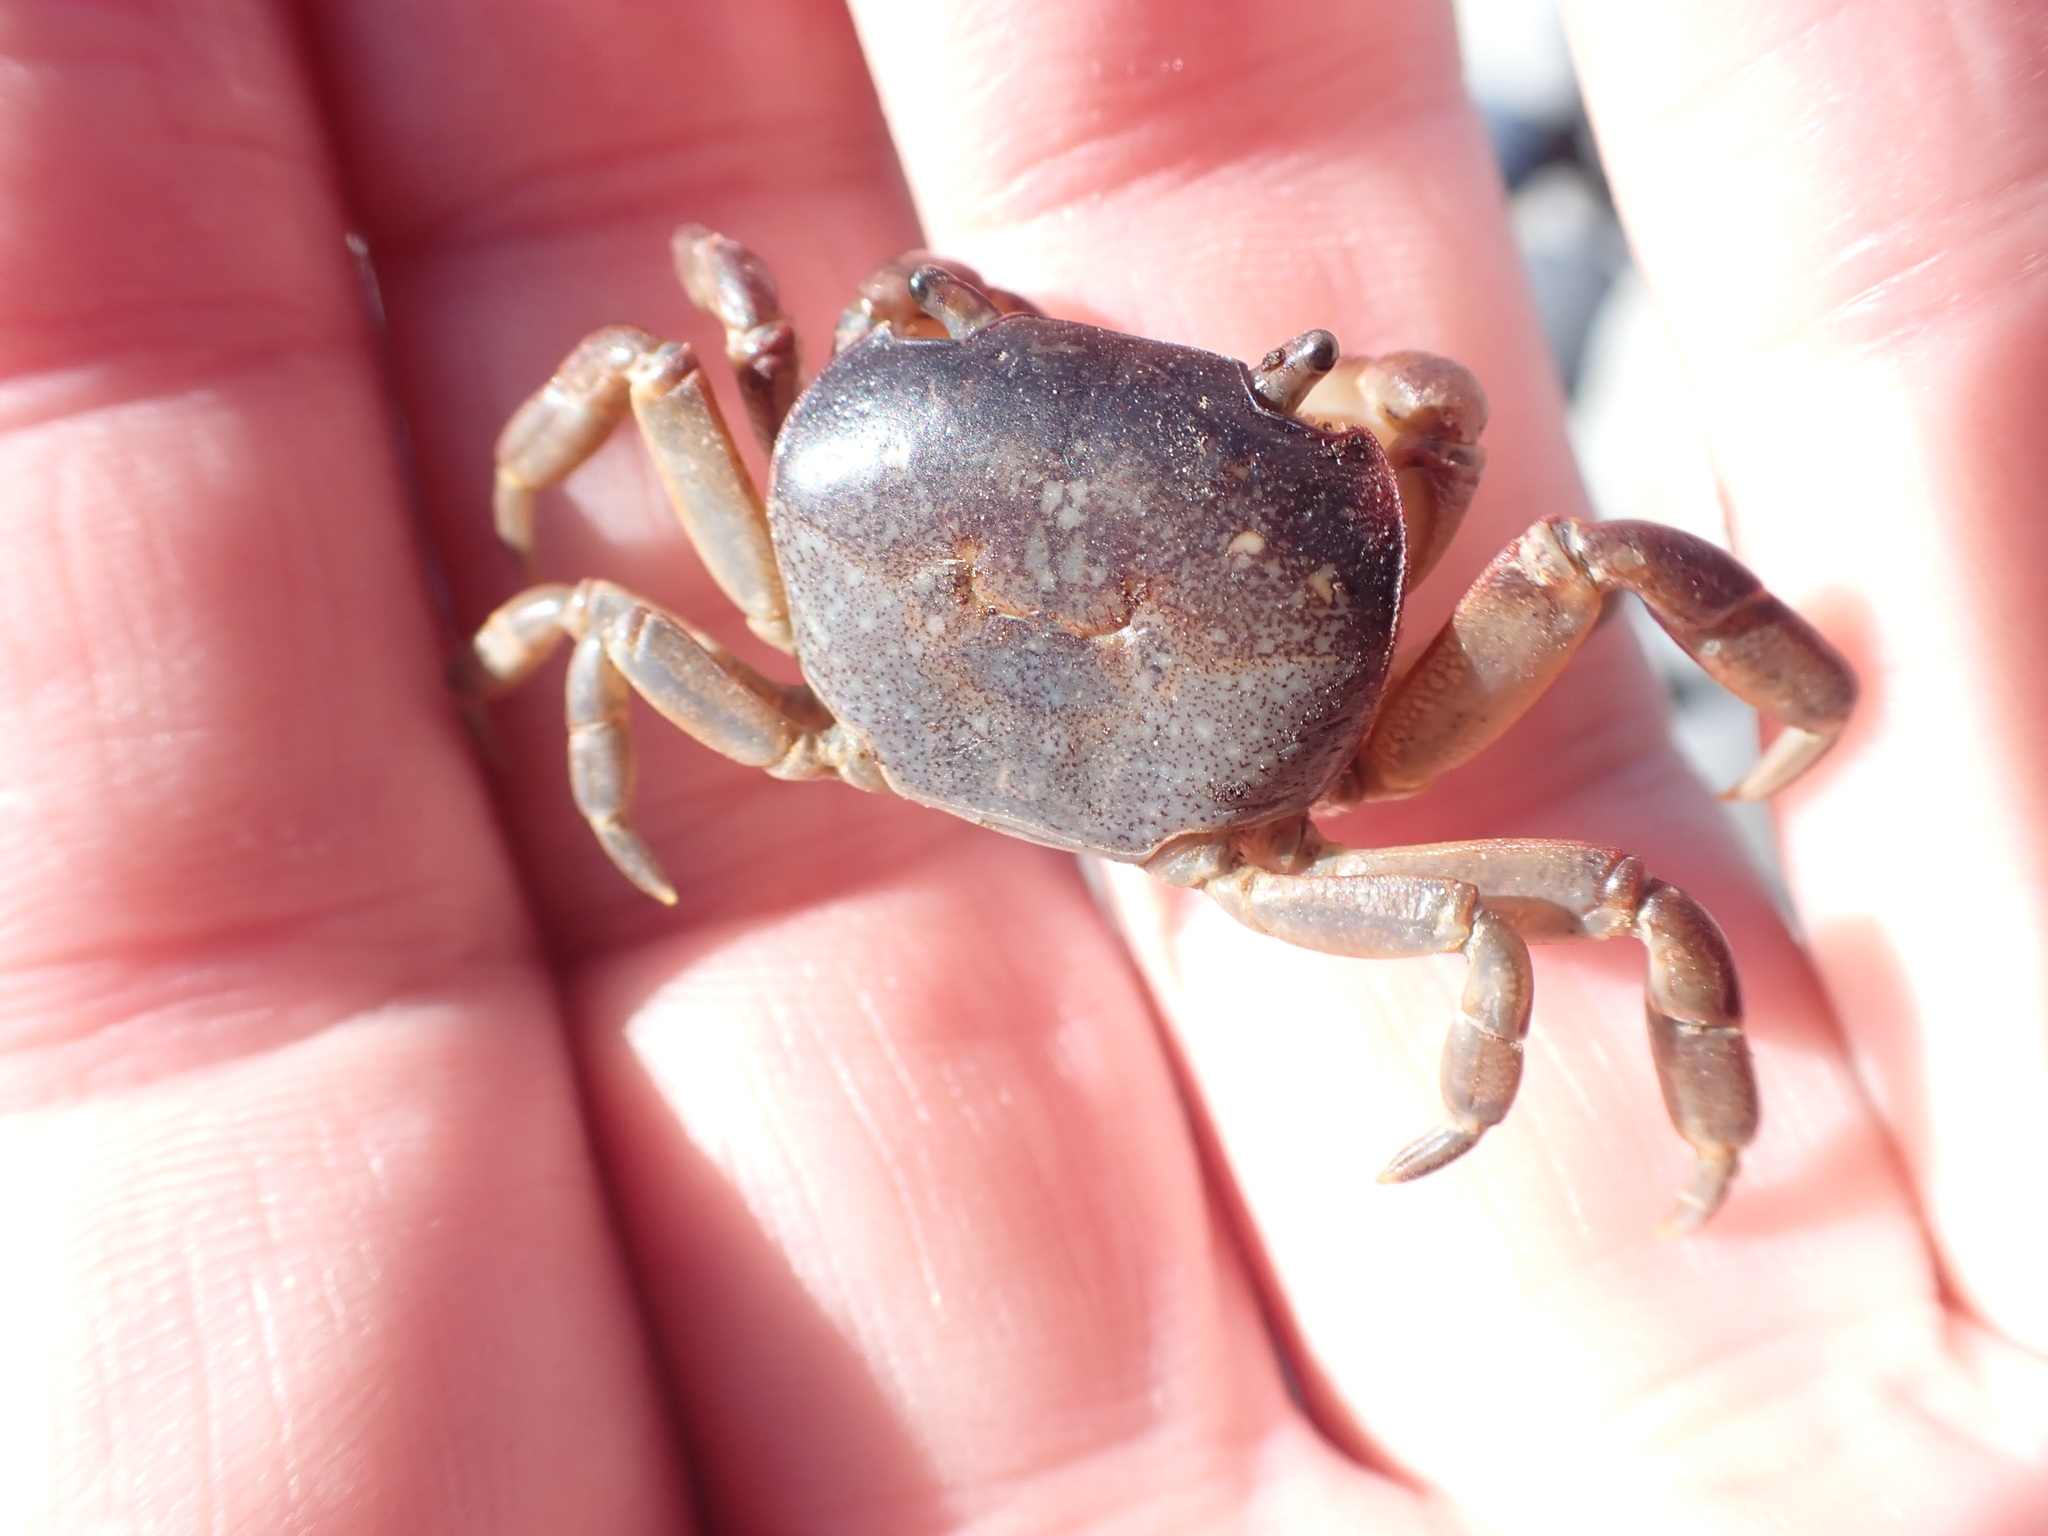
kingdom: Animalia
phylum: Arthropoda
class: Malacostraca
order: Decapoda
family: Varunidae
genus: Cyclograpsus
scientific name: Cyclograpsus lavauxi
